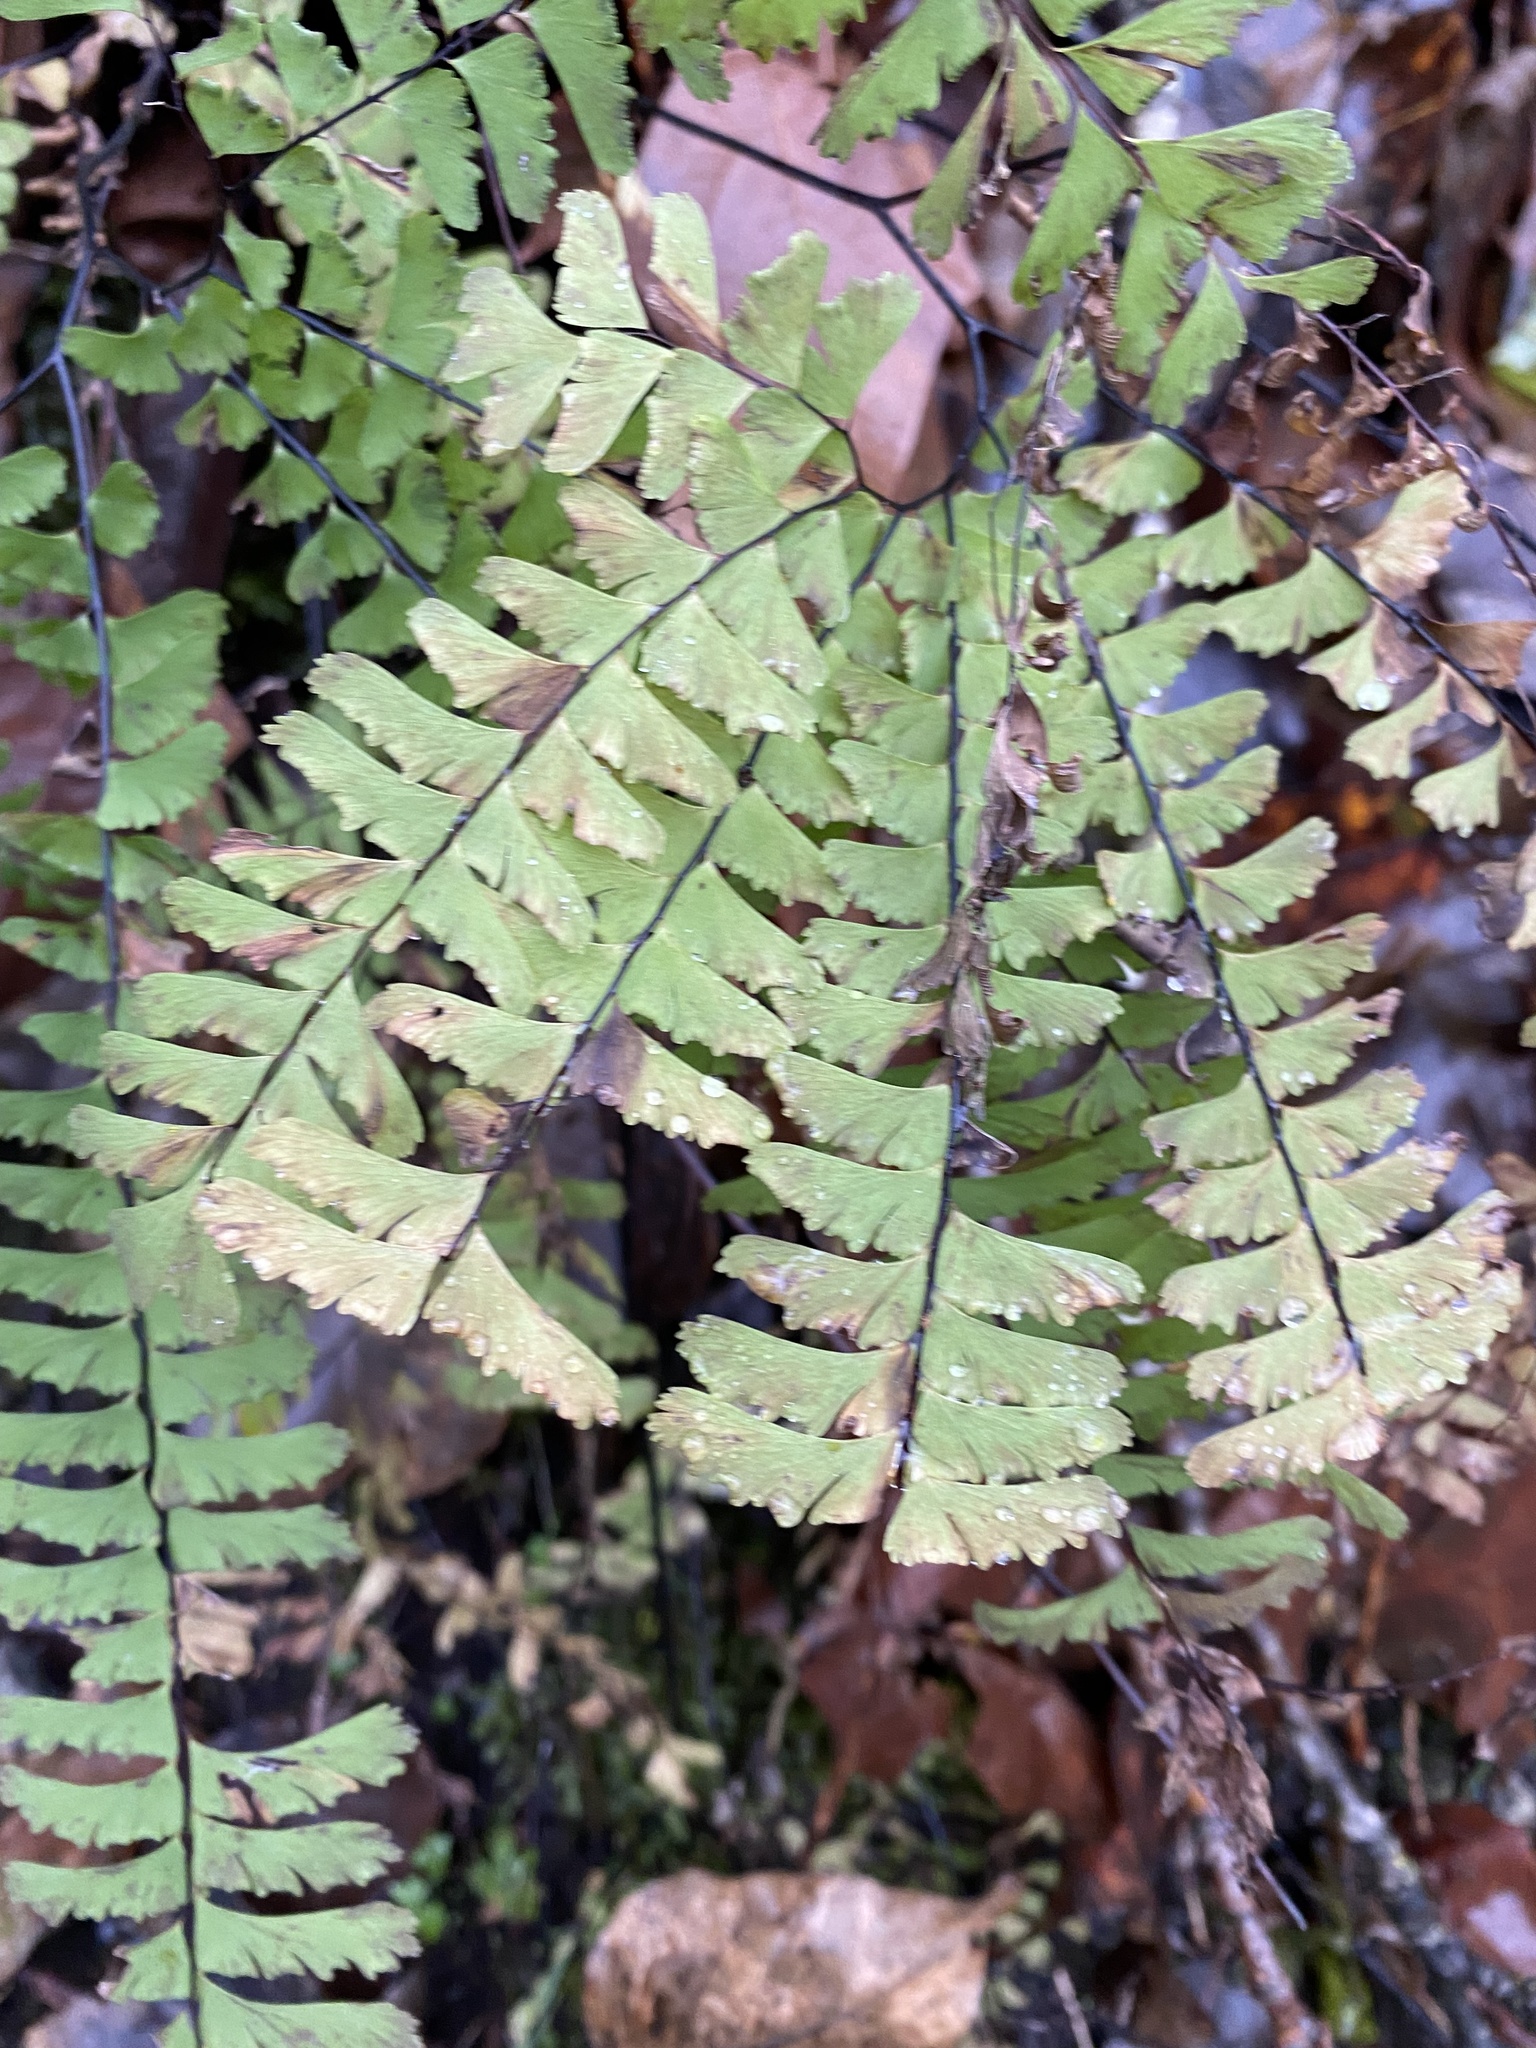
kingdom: Plantae
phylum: Tracheophyta
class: Polypodiopsida
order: Polypodiales
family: Pteridaceae
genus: Adiantum
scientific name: Adiantum aleuticum
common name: Aleutian maidenhair fern
